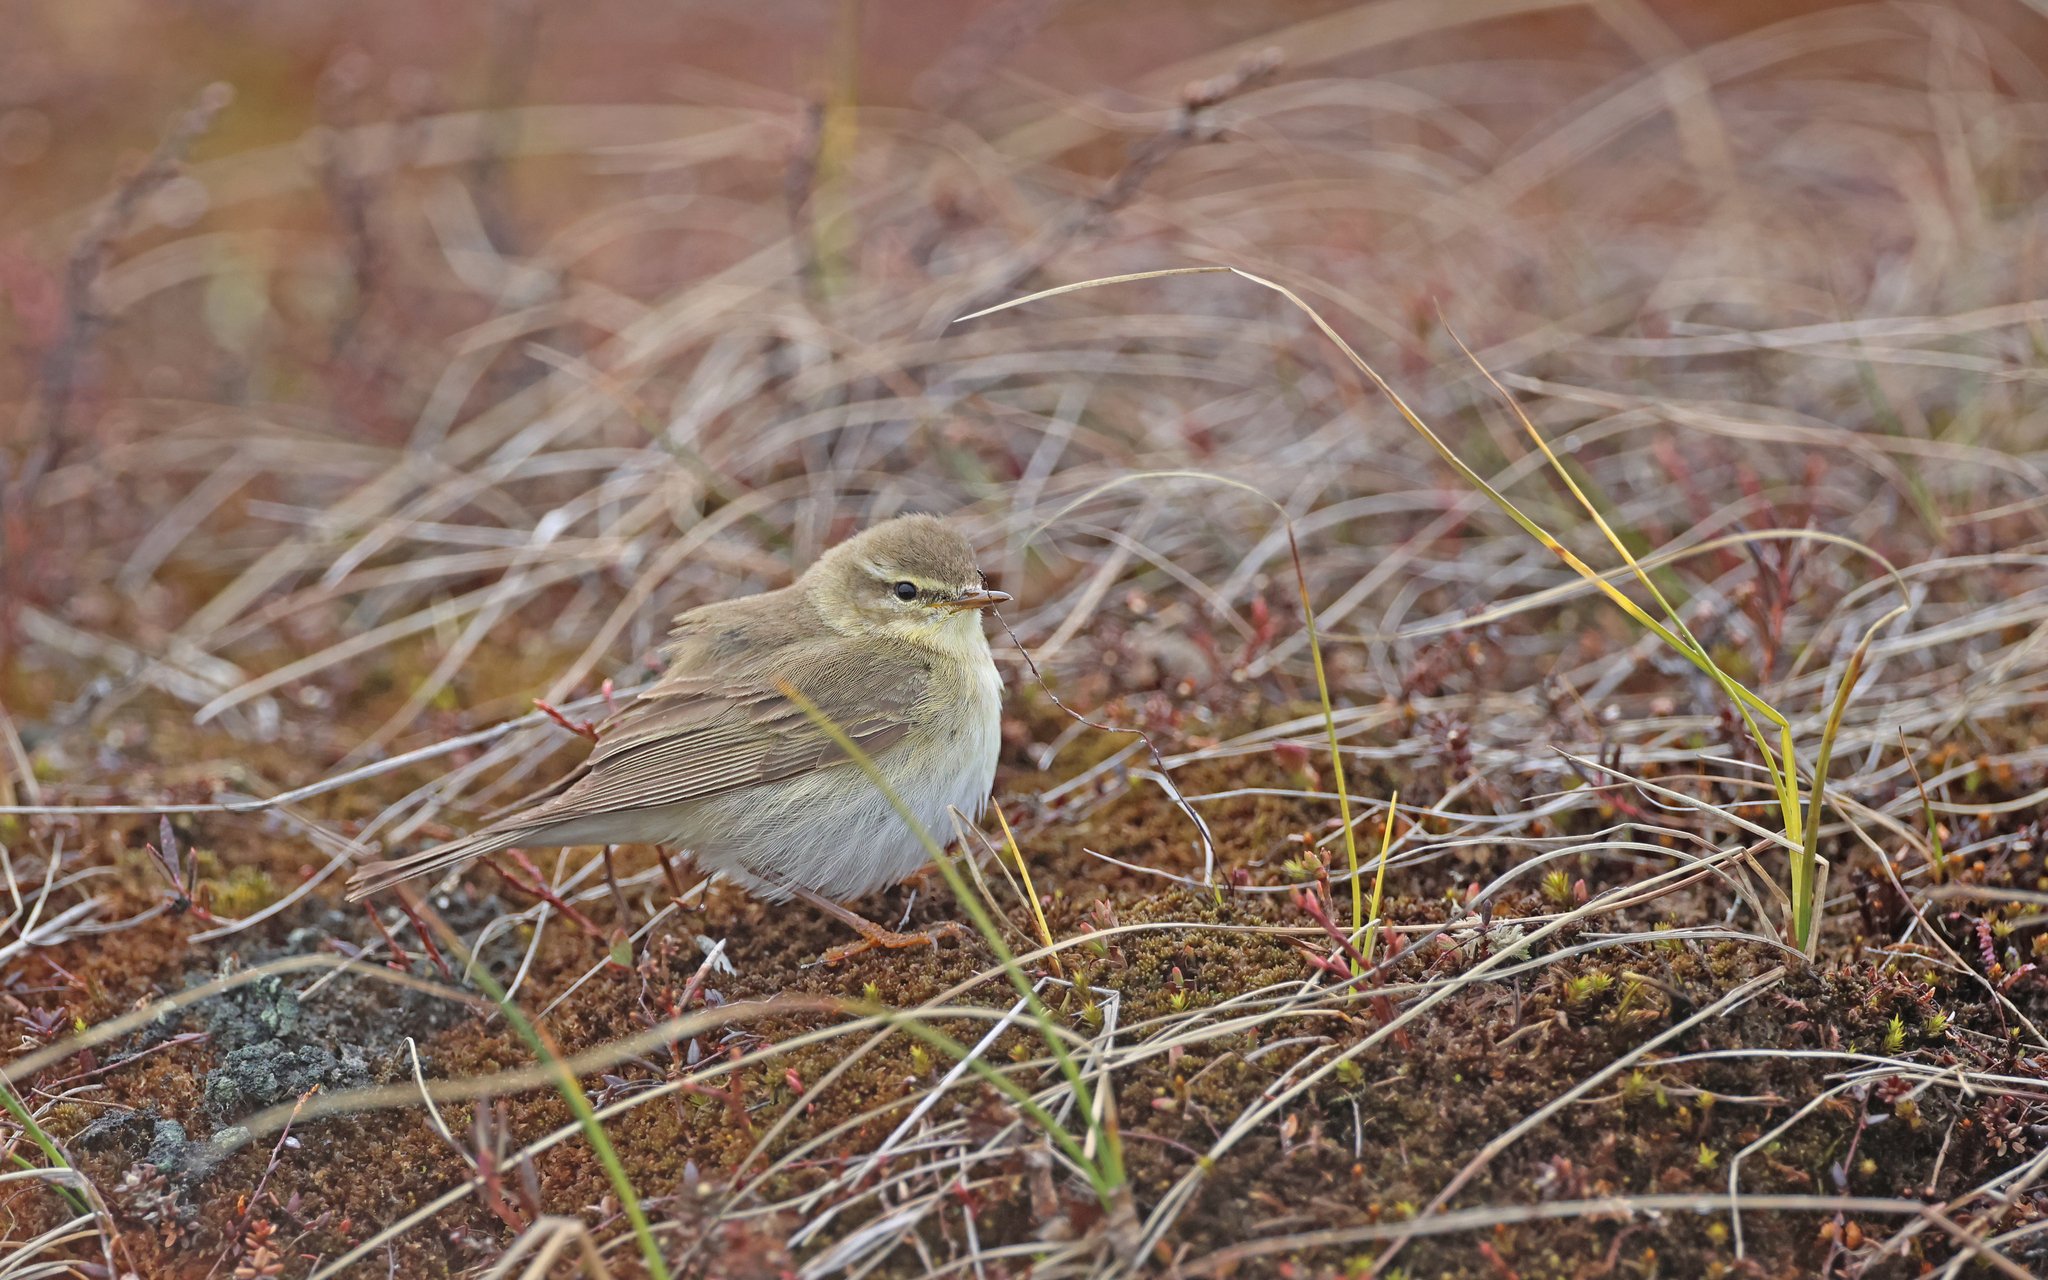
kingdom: Animalia
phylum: Chordata
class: Aves
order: Passeriformes
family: Phylloscopidae
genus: Phylloscopus
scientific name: Phylloscopus trochilus
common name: Willow warbler
